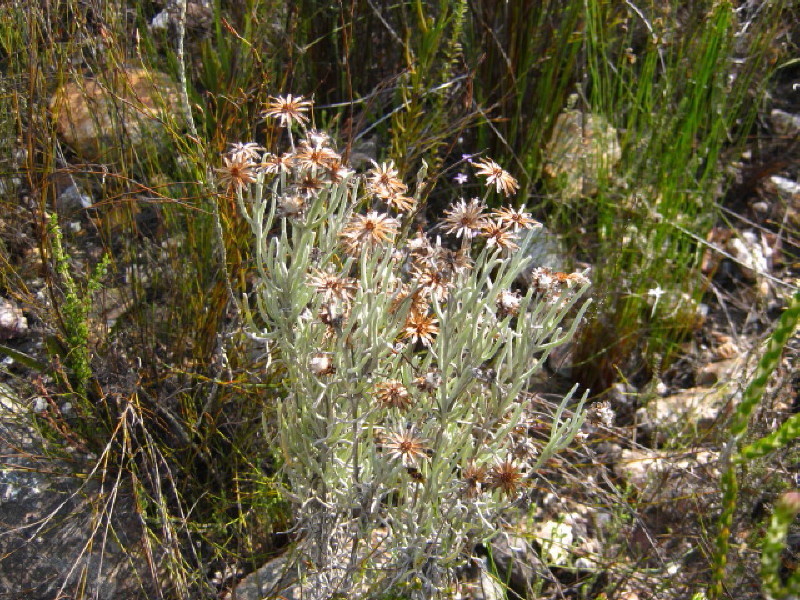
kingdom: Plantae
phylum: Tracheophyta
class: Magnoliopsida
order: Asterales
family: Asteraceae
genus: Syncarpha
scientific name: Syncarpha gnaphaloides
